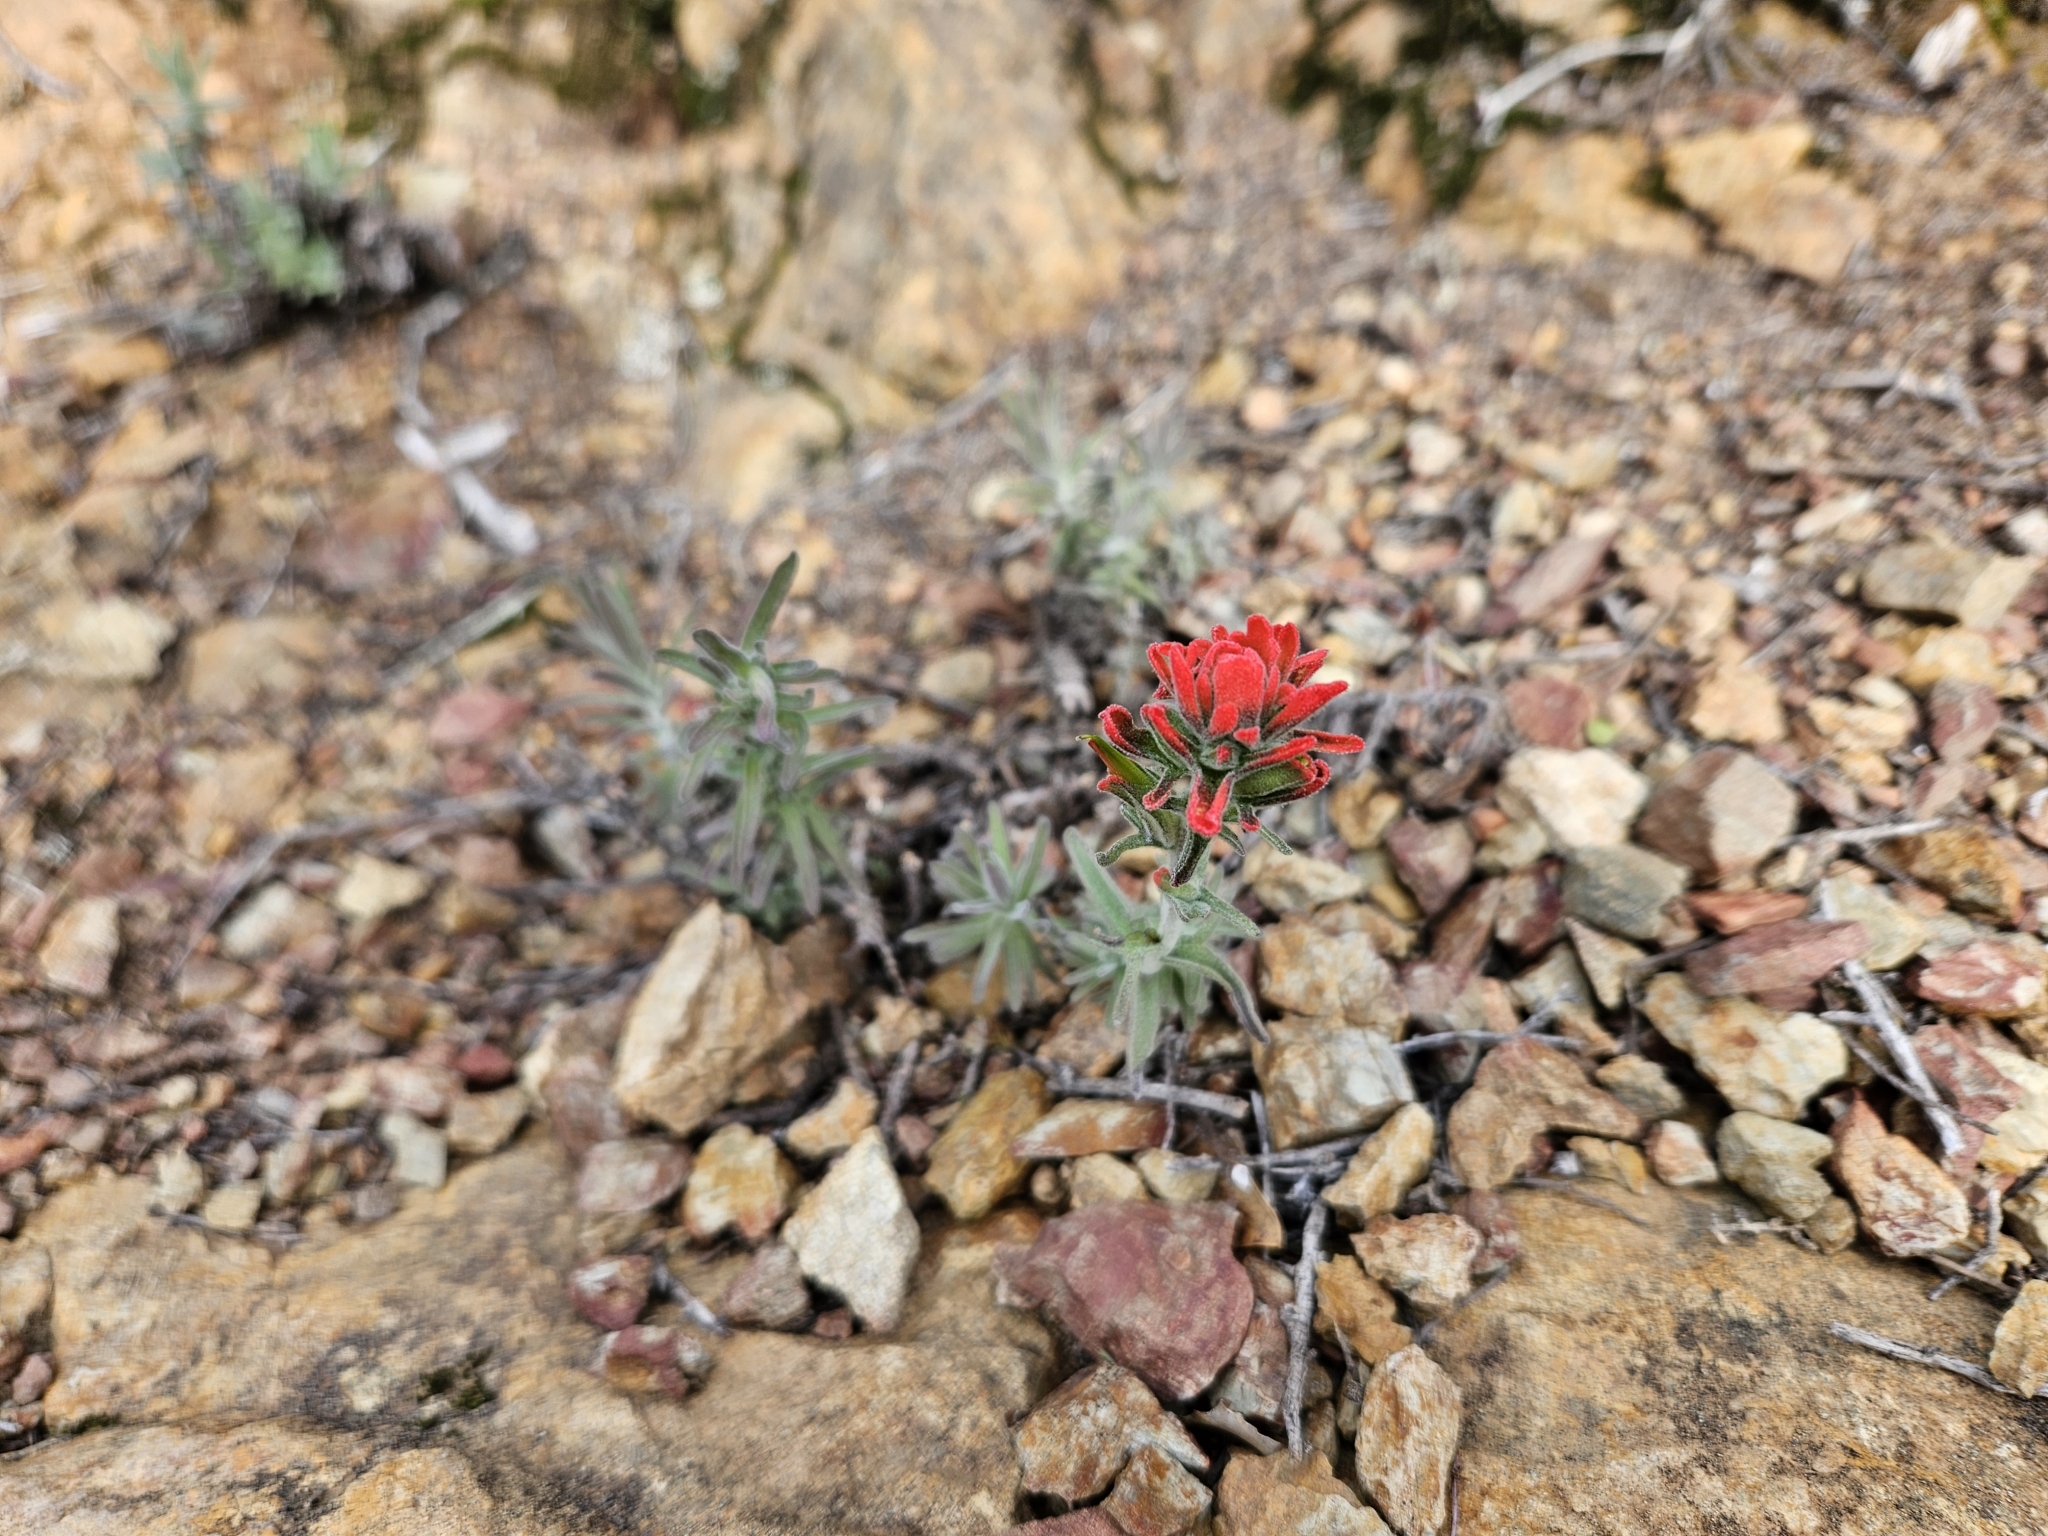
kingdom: Plantae
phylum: Tracheophyta
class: Magnoliopsida
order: Lamiales
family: Orobanchaceae
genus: Castilleja
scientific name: Castilleja foliolosa
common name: Woolly indian paintbrush
